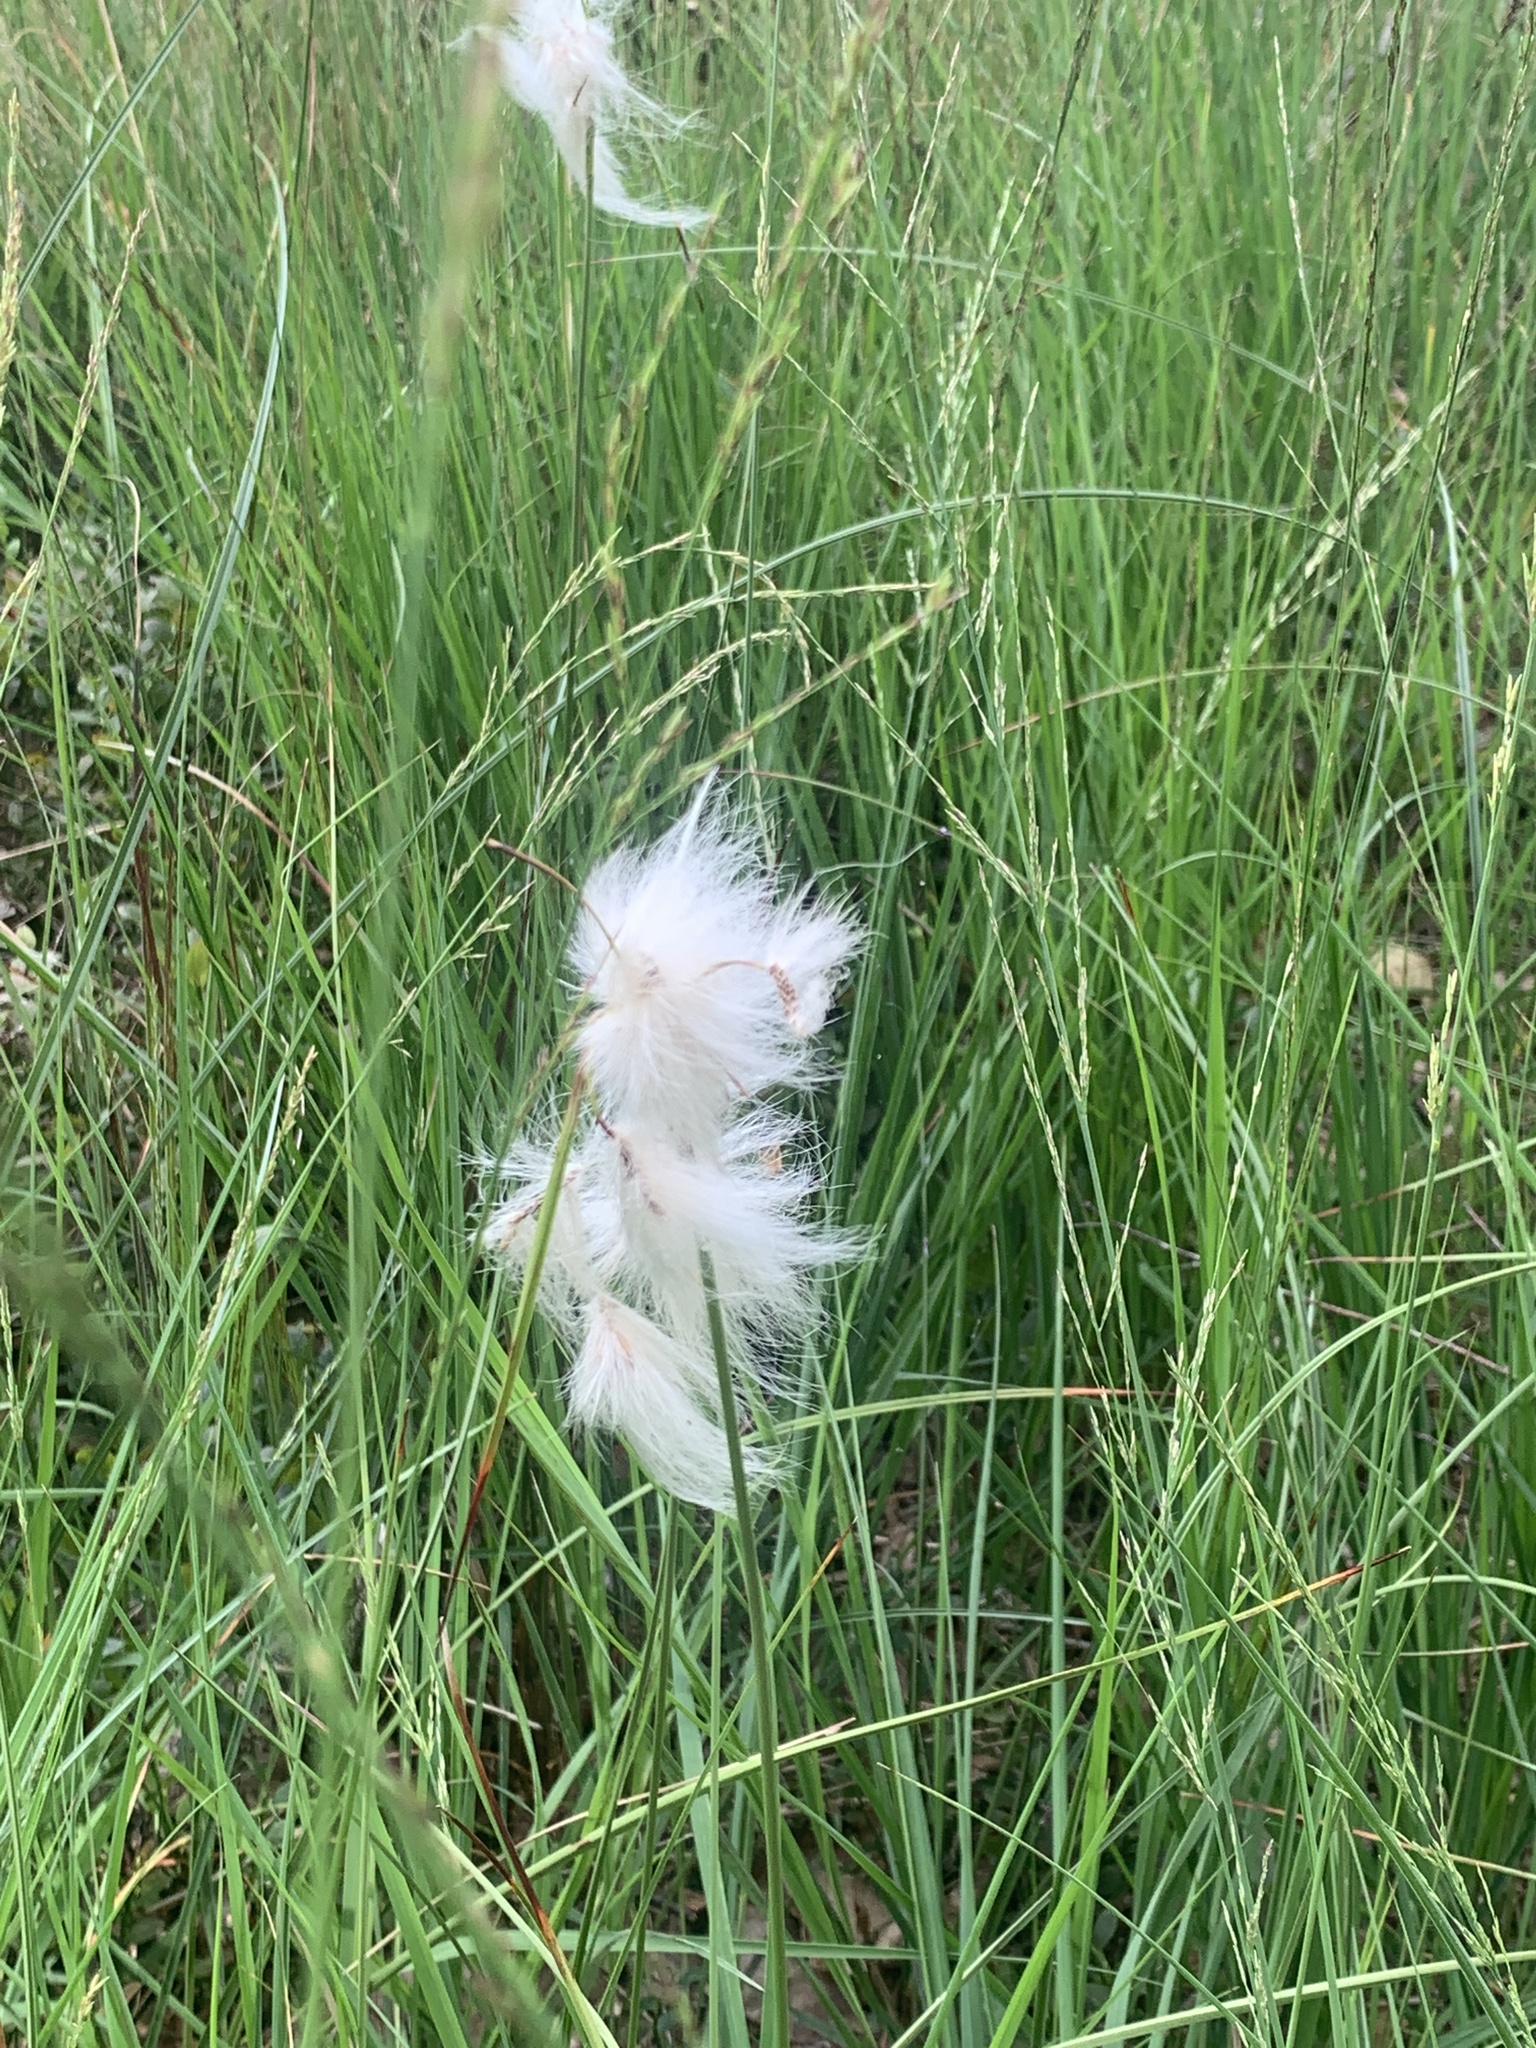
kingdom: Plantae
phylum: Tracheophyta
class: Liliopsida
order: Poales
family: Cyperaceae
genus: Eriophorum
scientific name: Eriophorum angustifolium
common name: Common cottongrass
